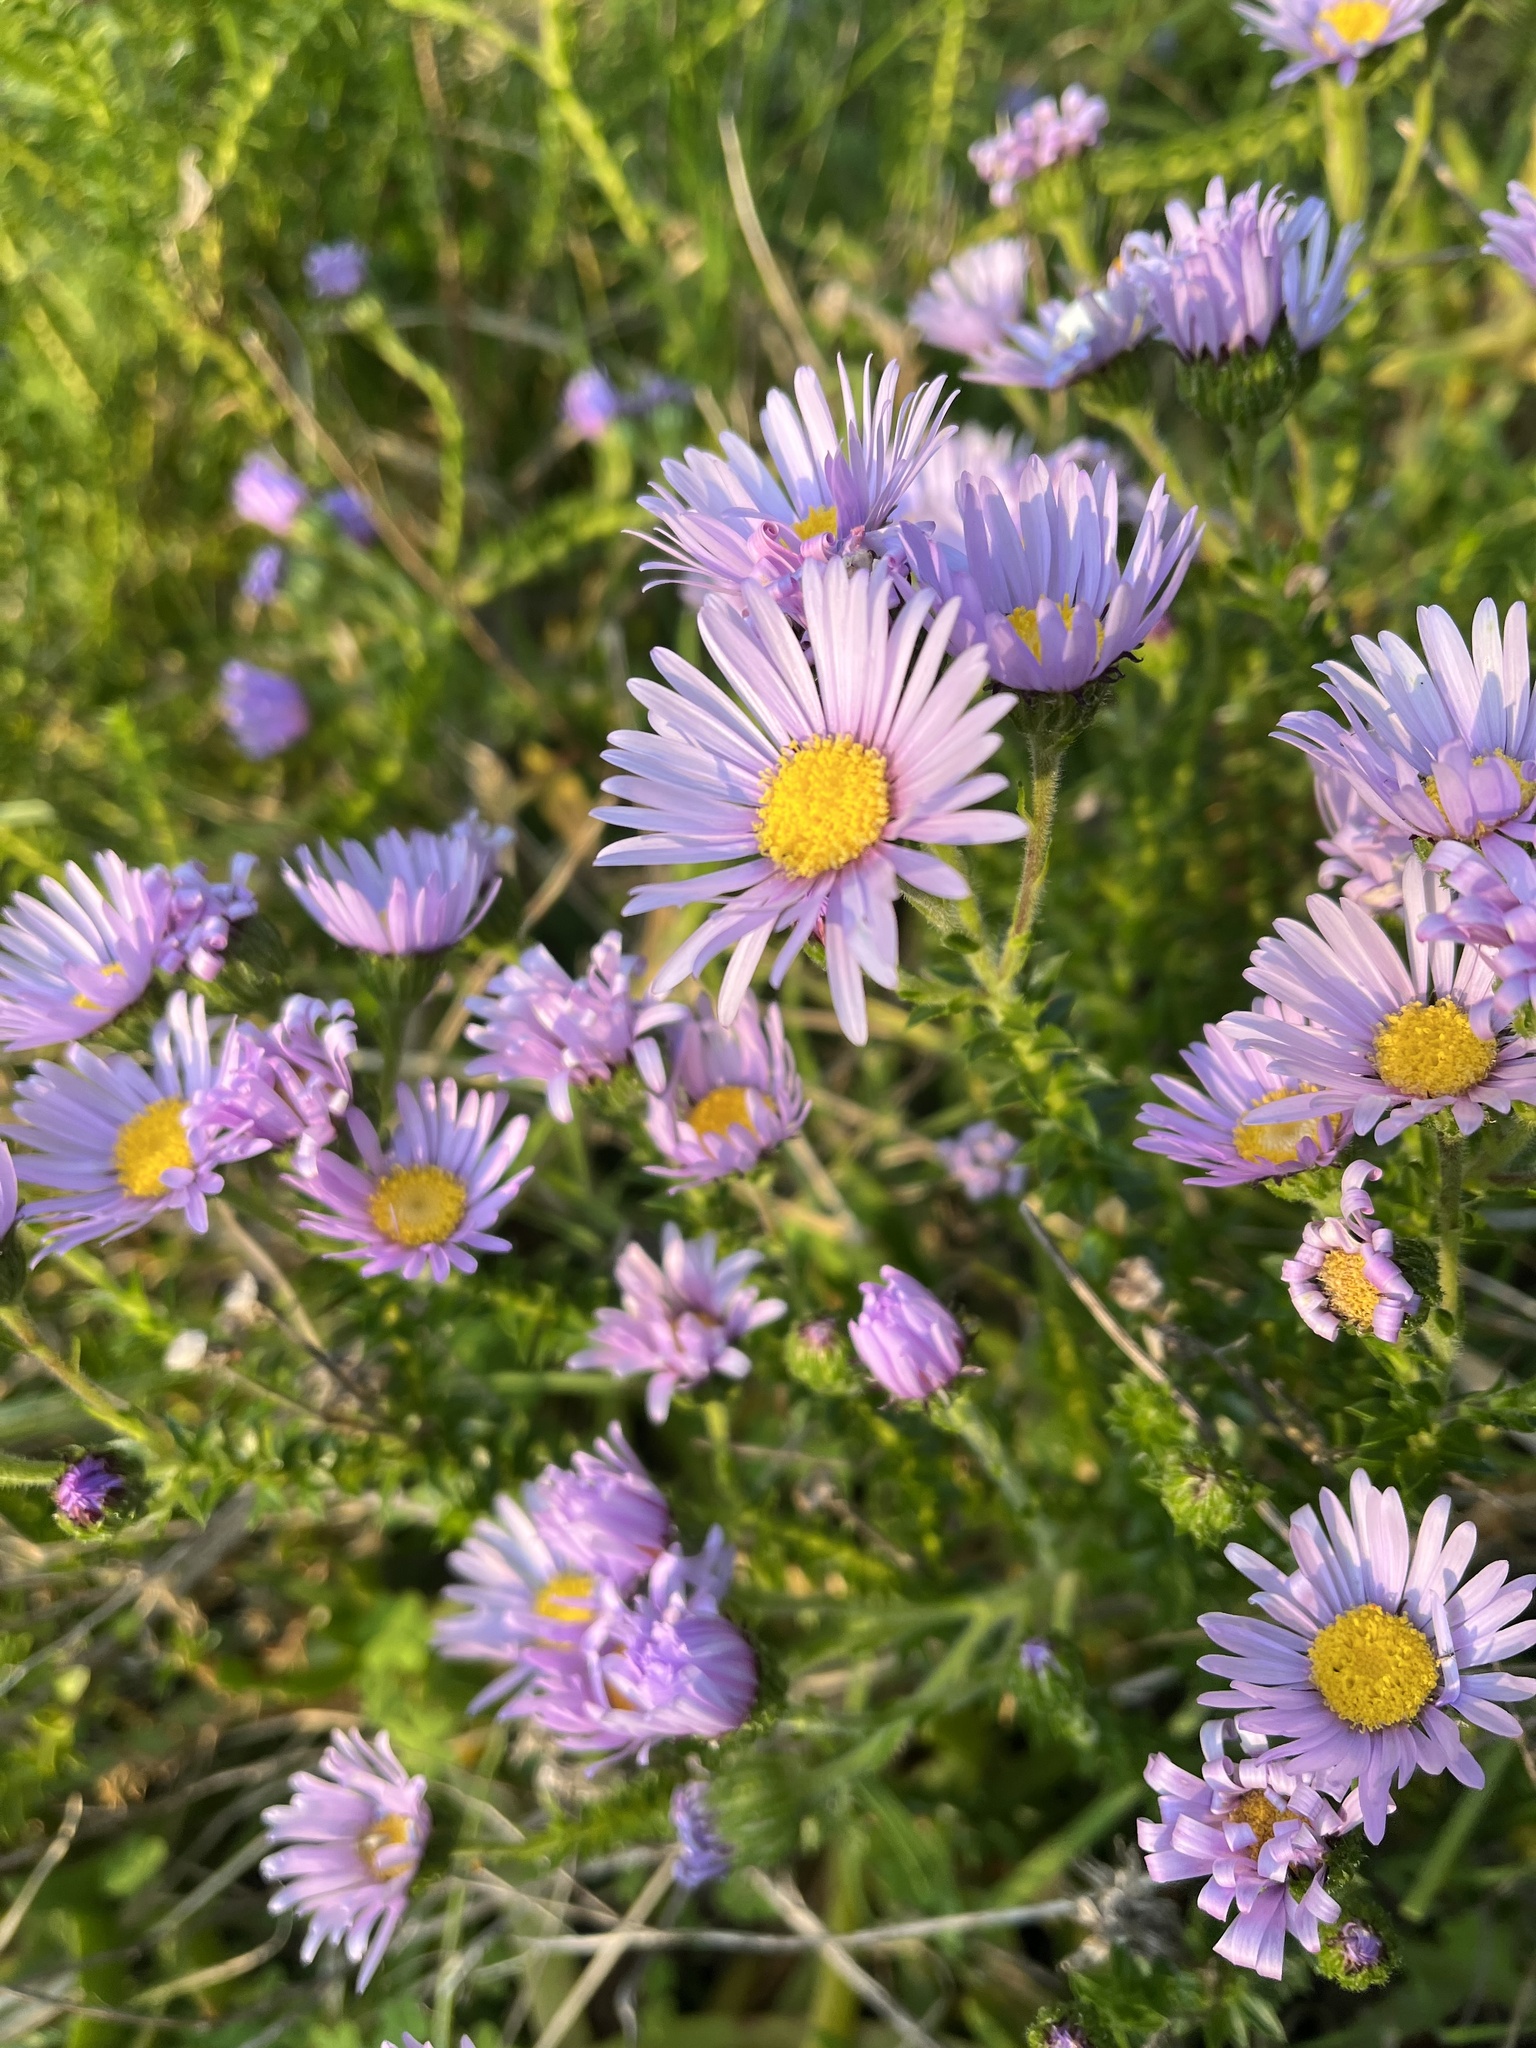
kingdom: Plantae
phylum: Tracheophyta
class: Magnoliopsida
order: Asterales
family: Asteraceae
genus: Felicia
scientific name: Felicia echinata
